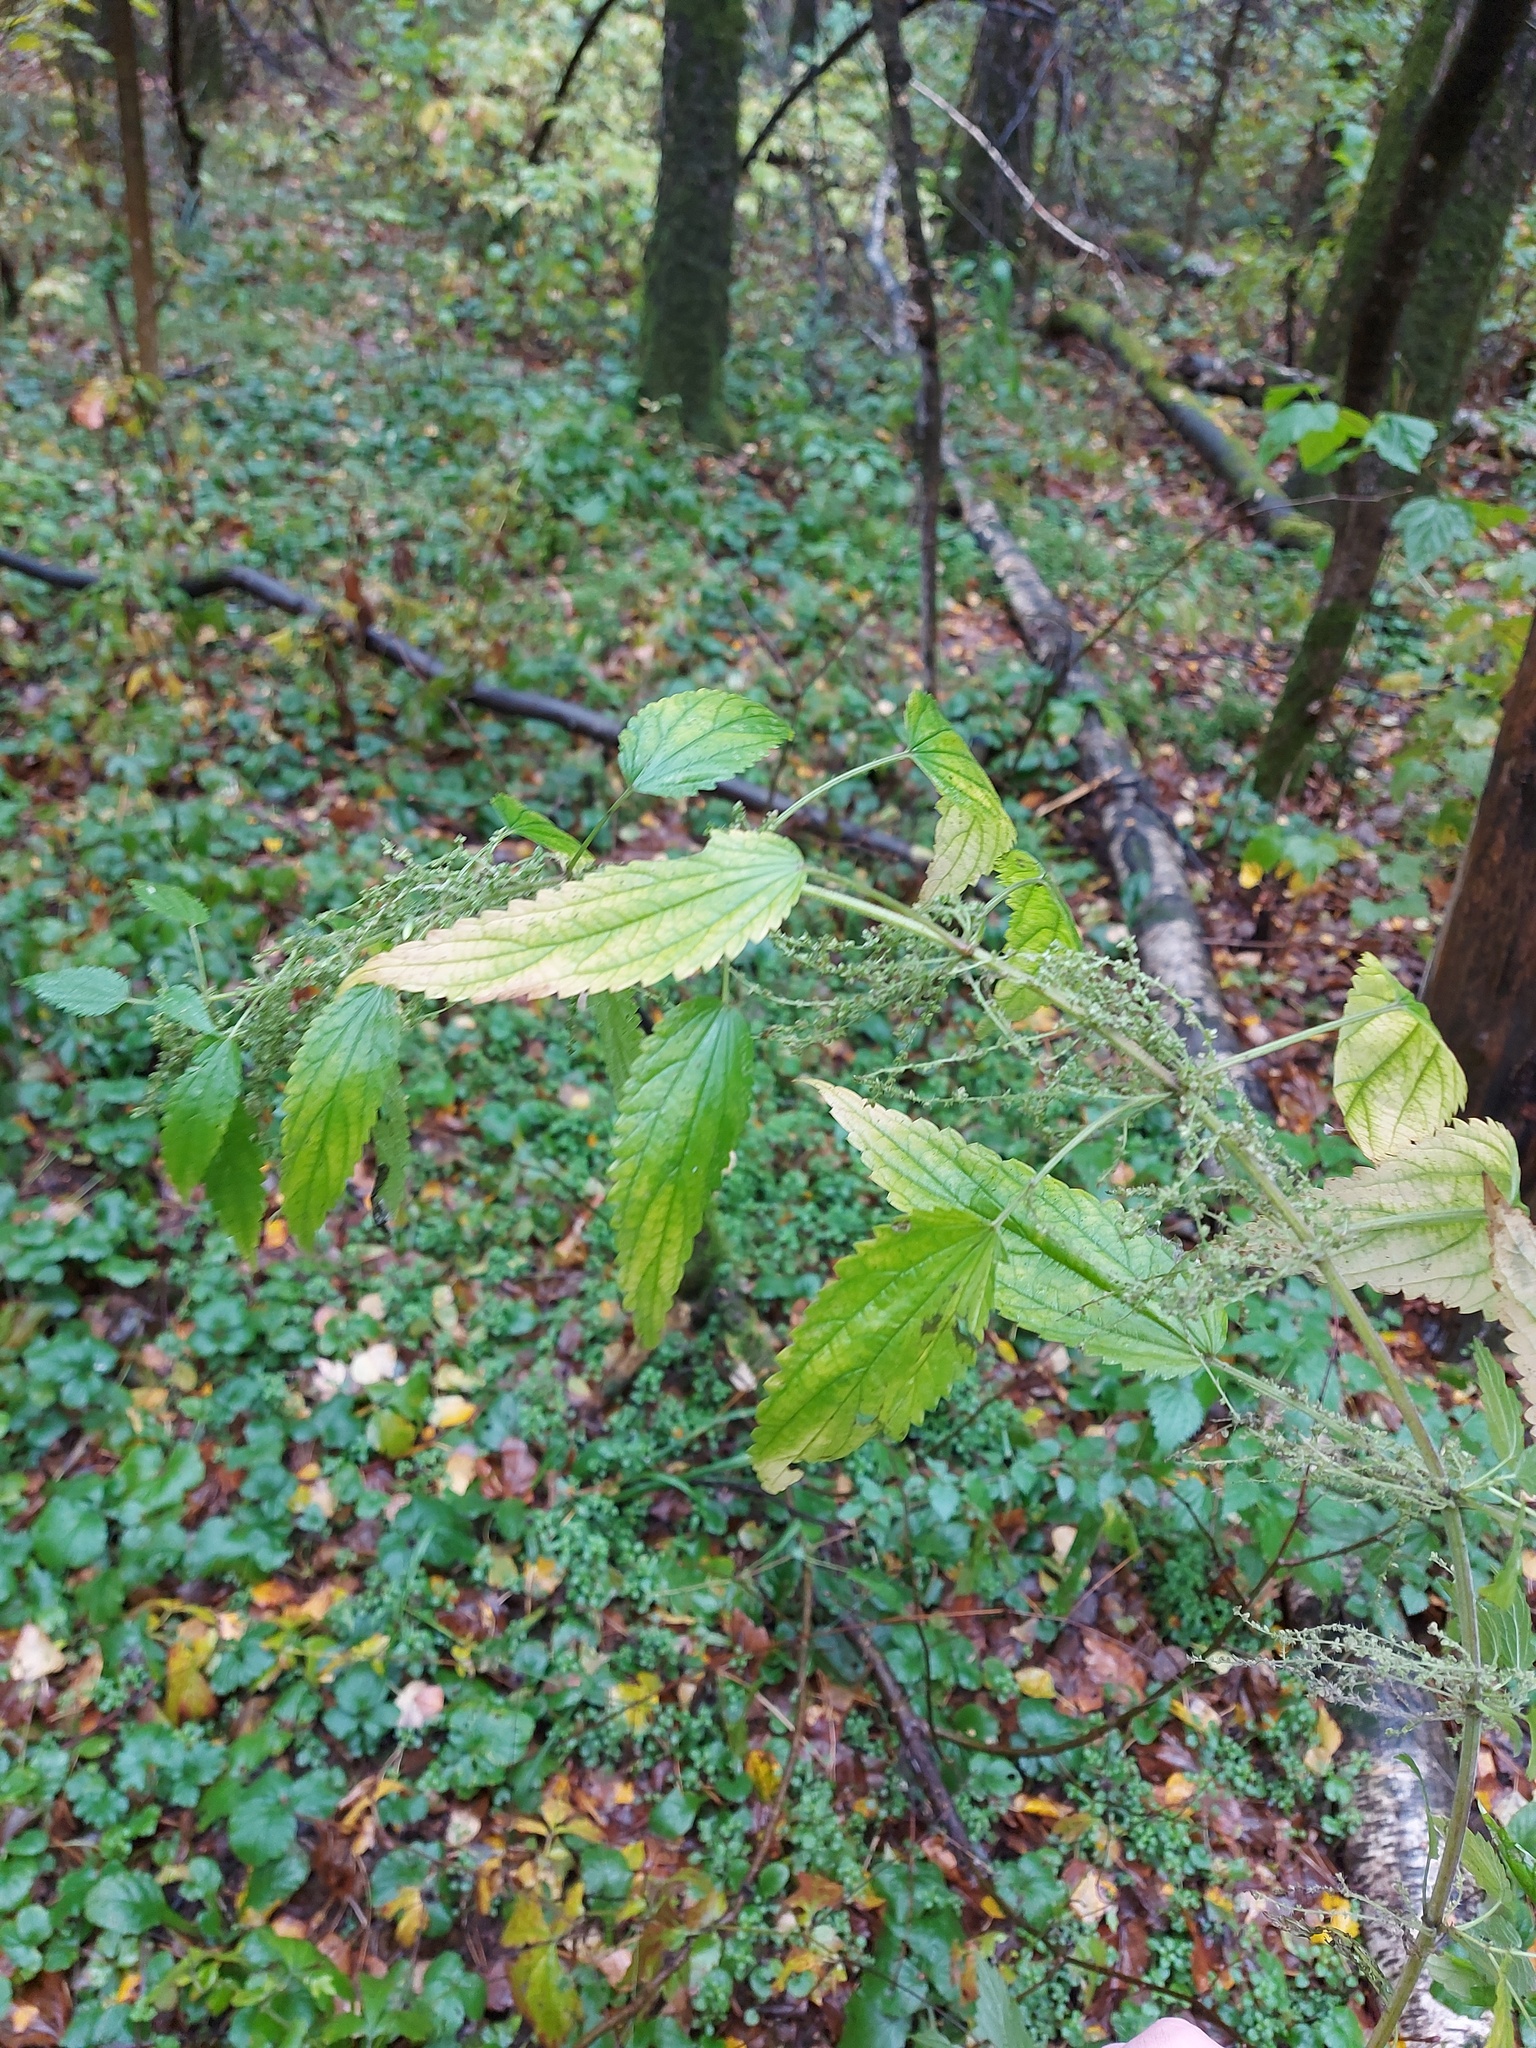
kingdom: Plantae
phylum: Tracheophyta
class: Magnoliopsida
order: Rosales
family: Urticaceae
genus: Urtica
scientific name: Urtica dioica
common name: Common nettle
